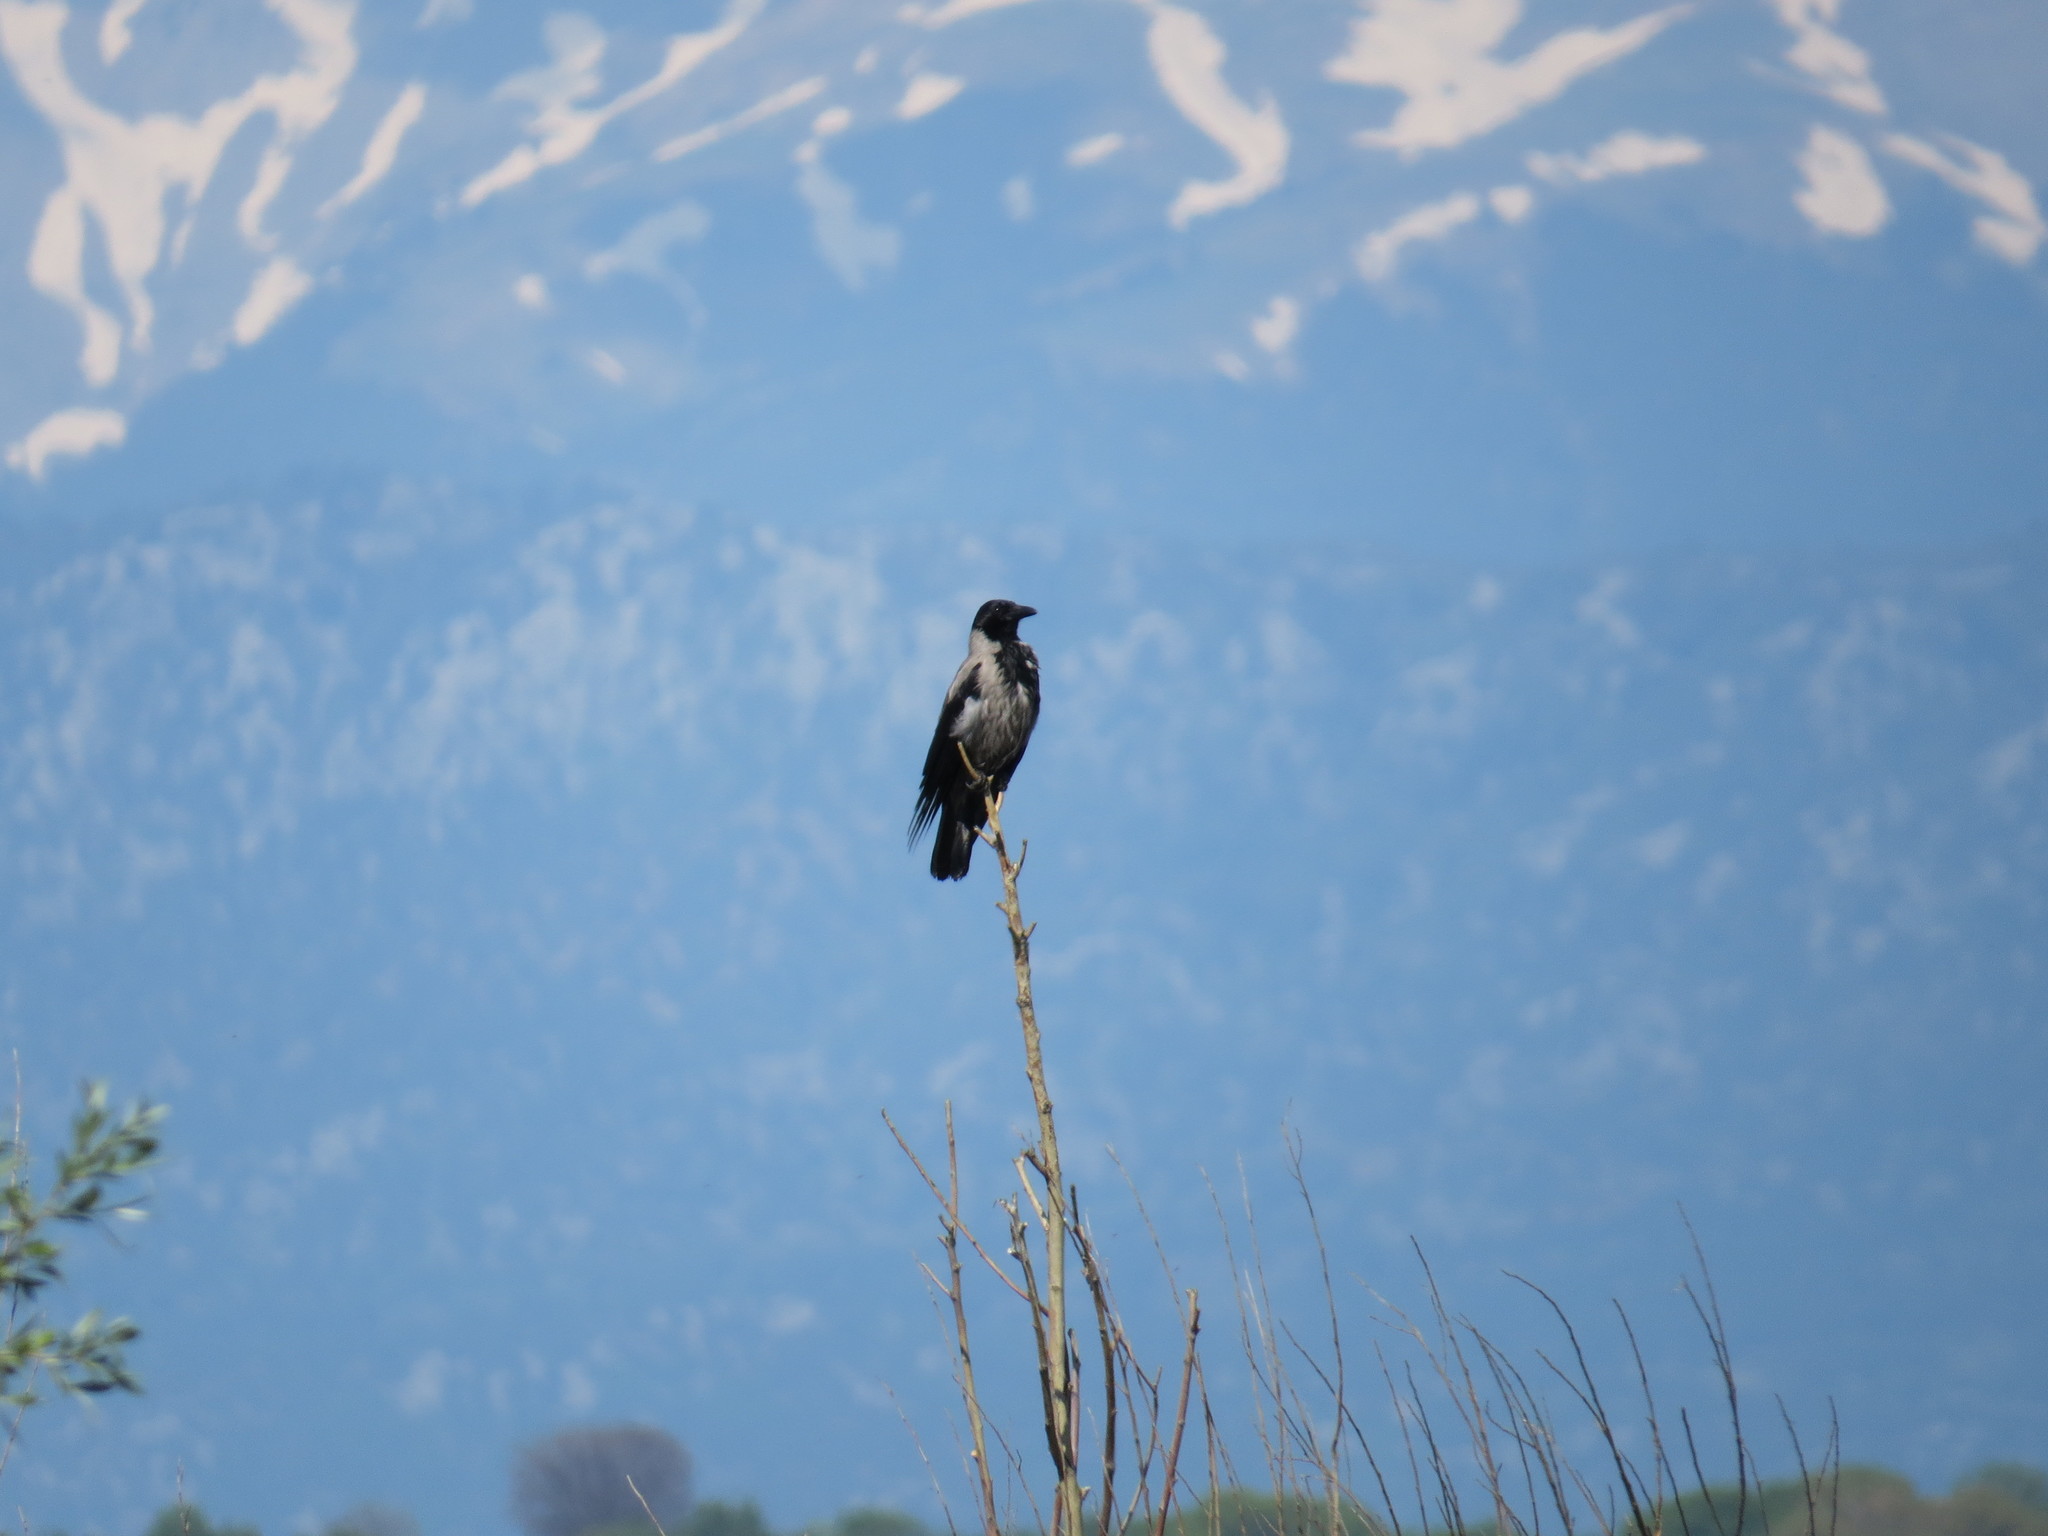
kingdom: Animalia
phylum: Chordata
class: Aves
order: Passeriformes
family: Corvidae
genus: Corvus
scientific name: Corvus cornix
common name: Hooded crow
